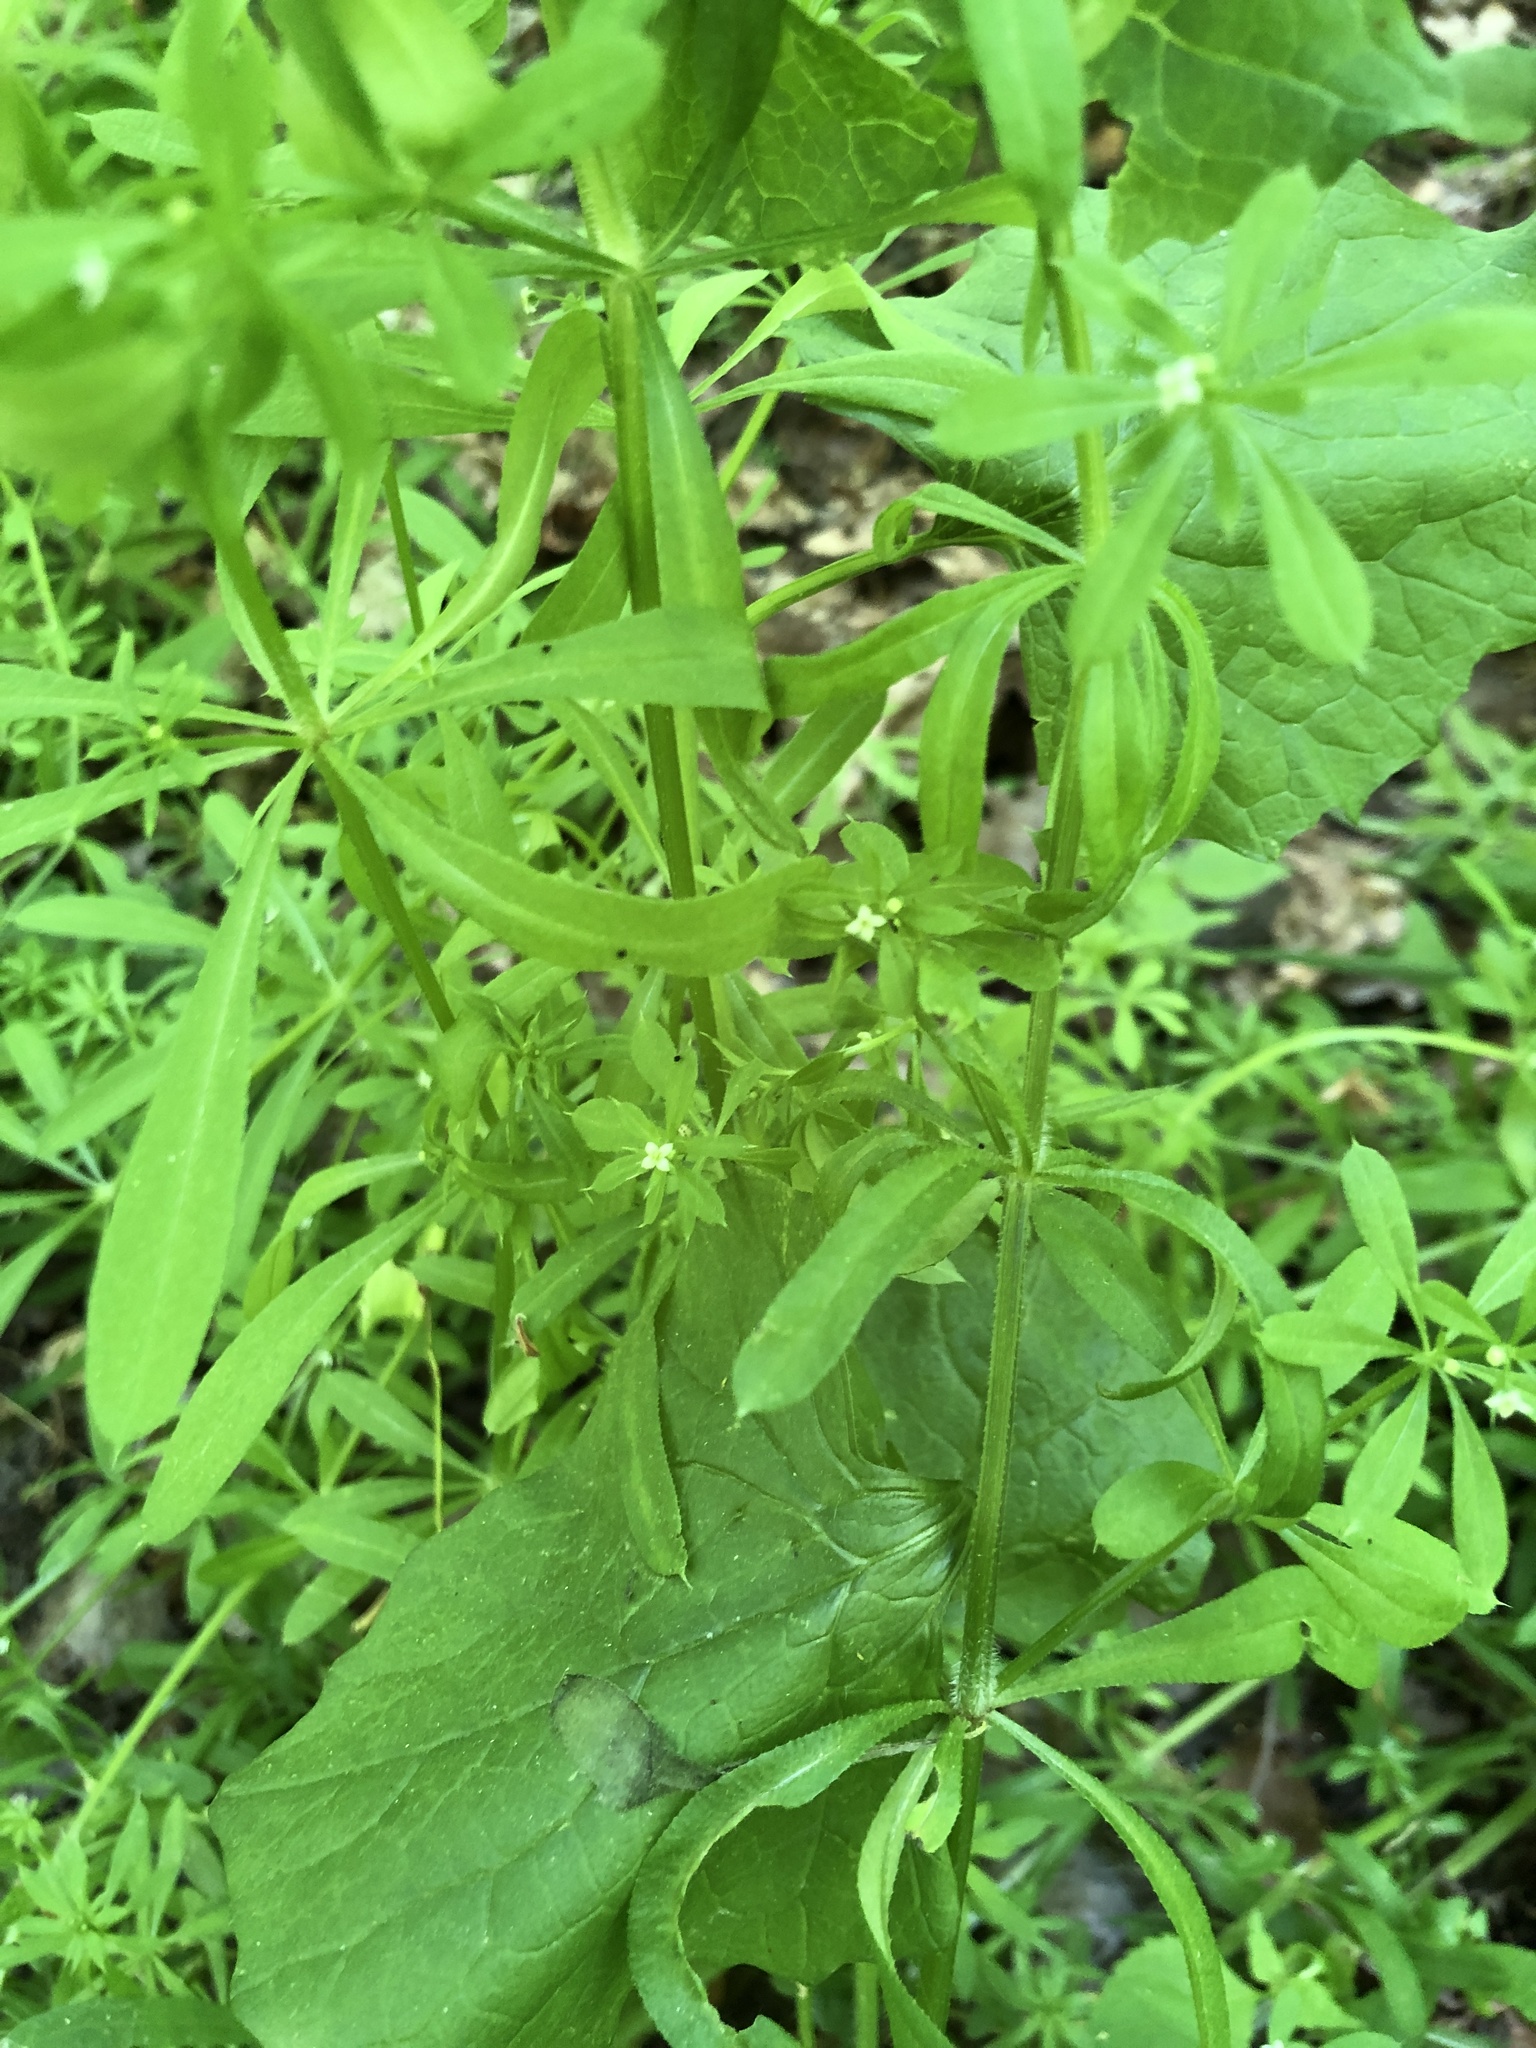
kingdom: Plantae
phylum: Tracheophyta
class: Magnoliopsida
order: Gentianales
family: Rubiaceae
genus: Galium
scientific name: Galium aparine
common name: Cleavers
